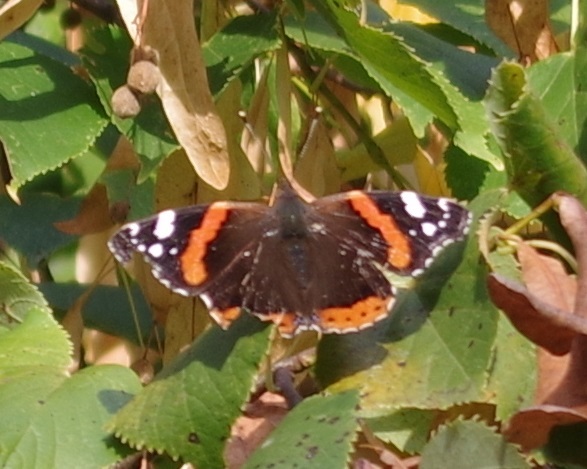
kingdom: Animalia
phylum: Arthropoda
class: Insecta
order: Lepidoptera
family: Nymphalidae
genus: Vanessa
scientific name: Vanessa atalanta
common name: Red admiral
